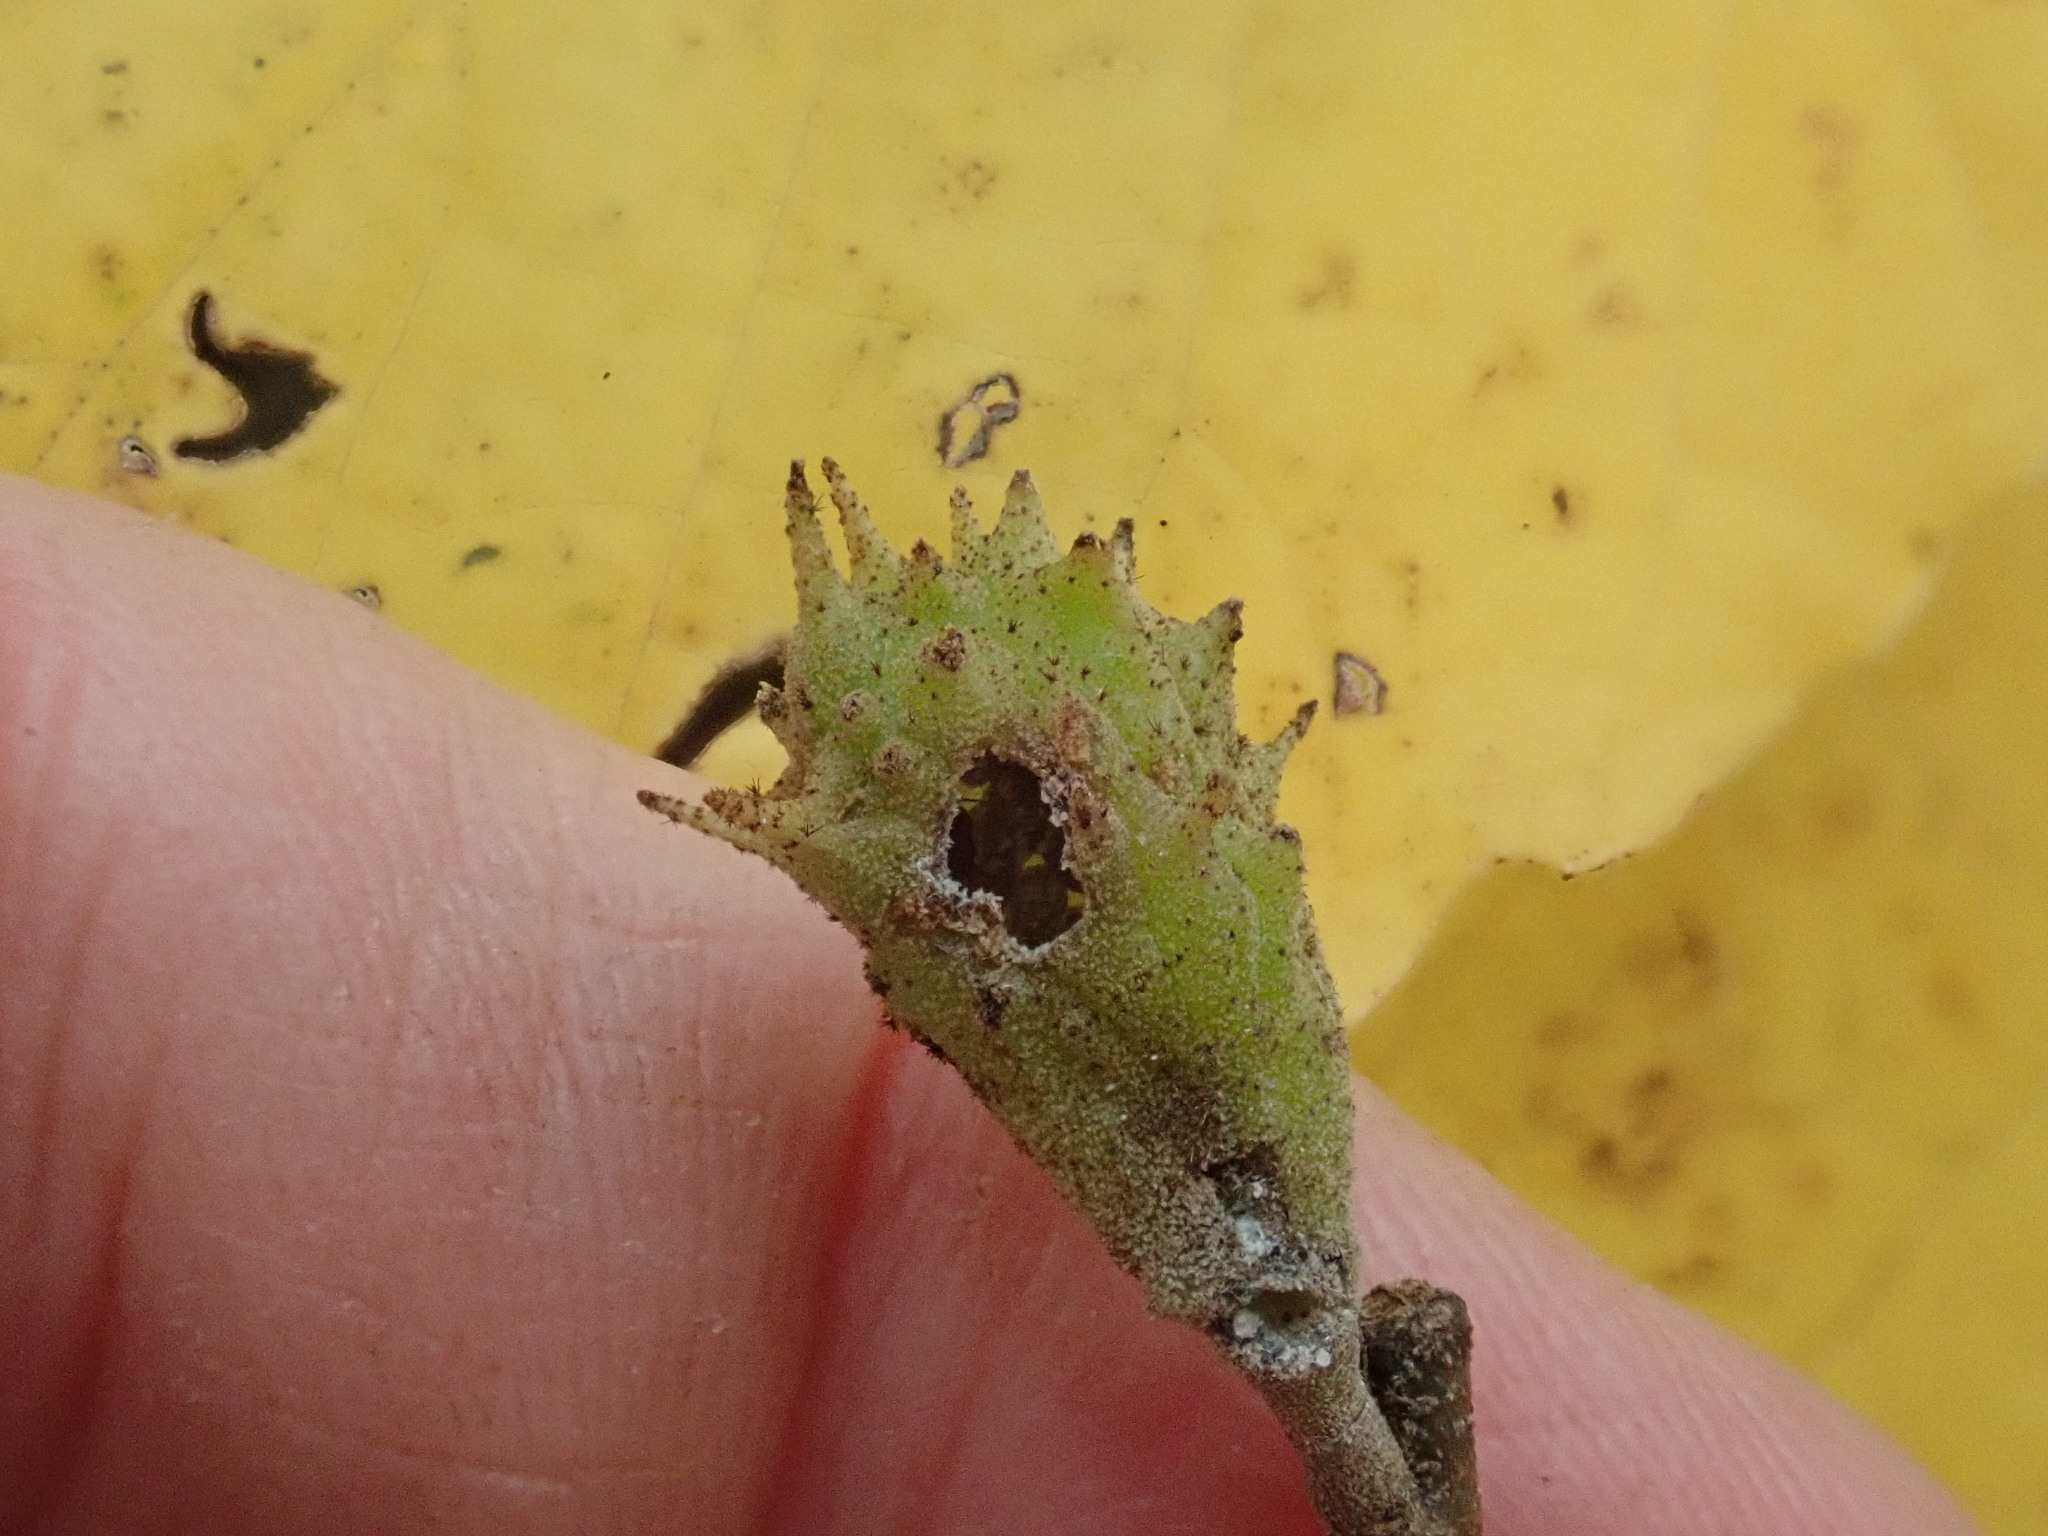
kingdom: Animalia
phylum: Arthropoda
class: Insecta
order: Hemiptera
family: Aphididae
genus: Hamamelistes
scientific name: Hamamelistes spinosus
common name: Witch hazel gall aphid
